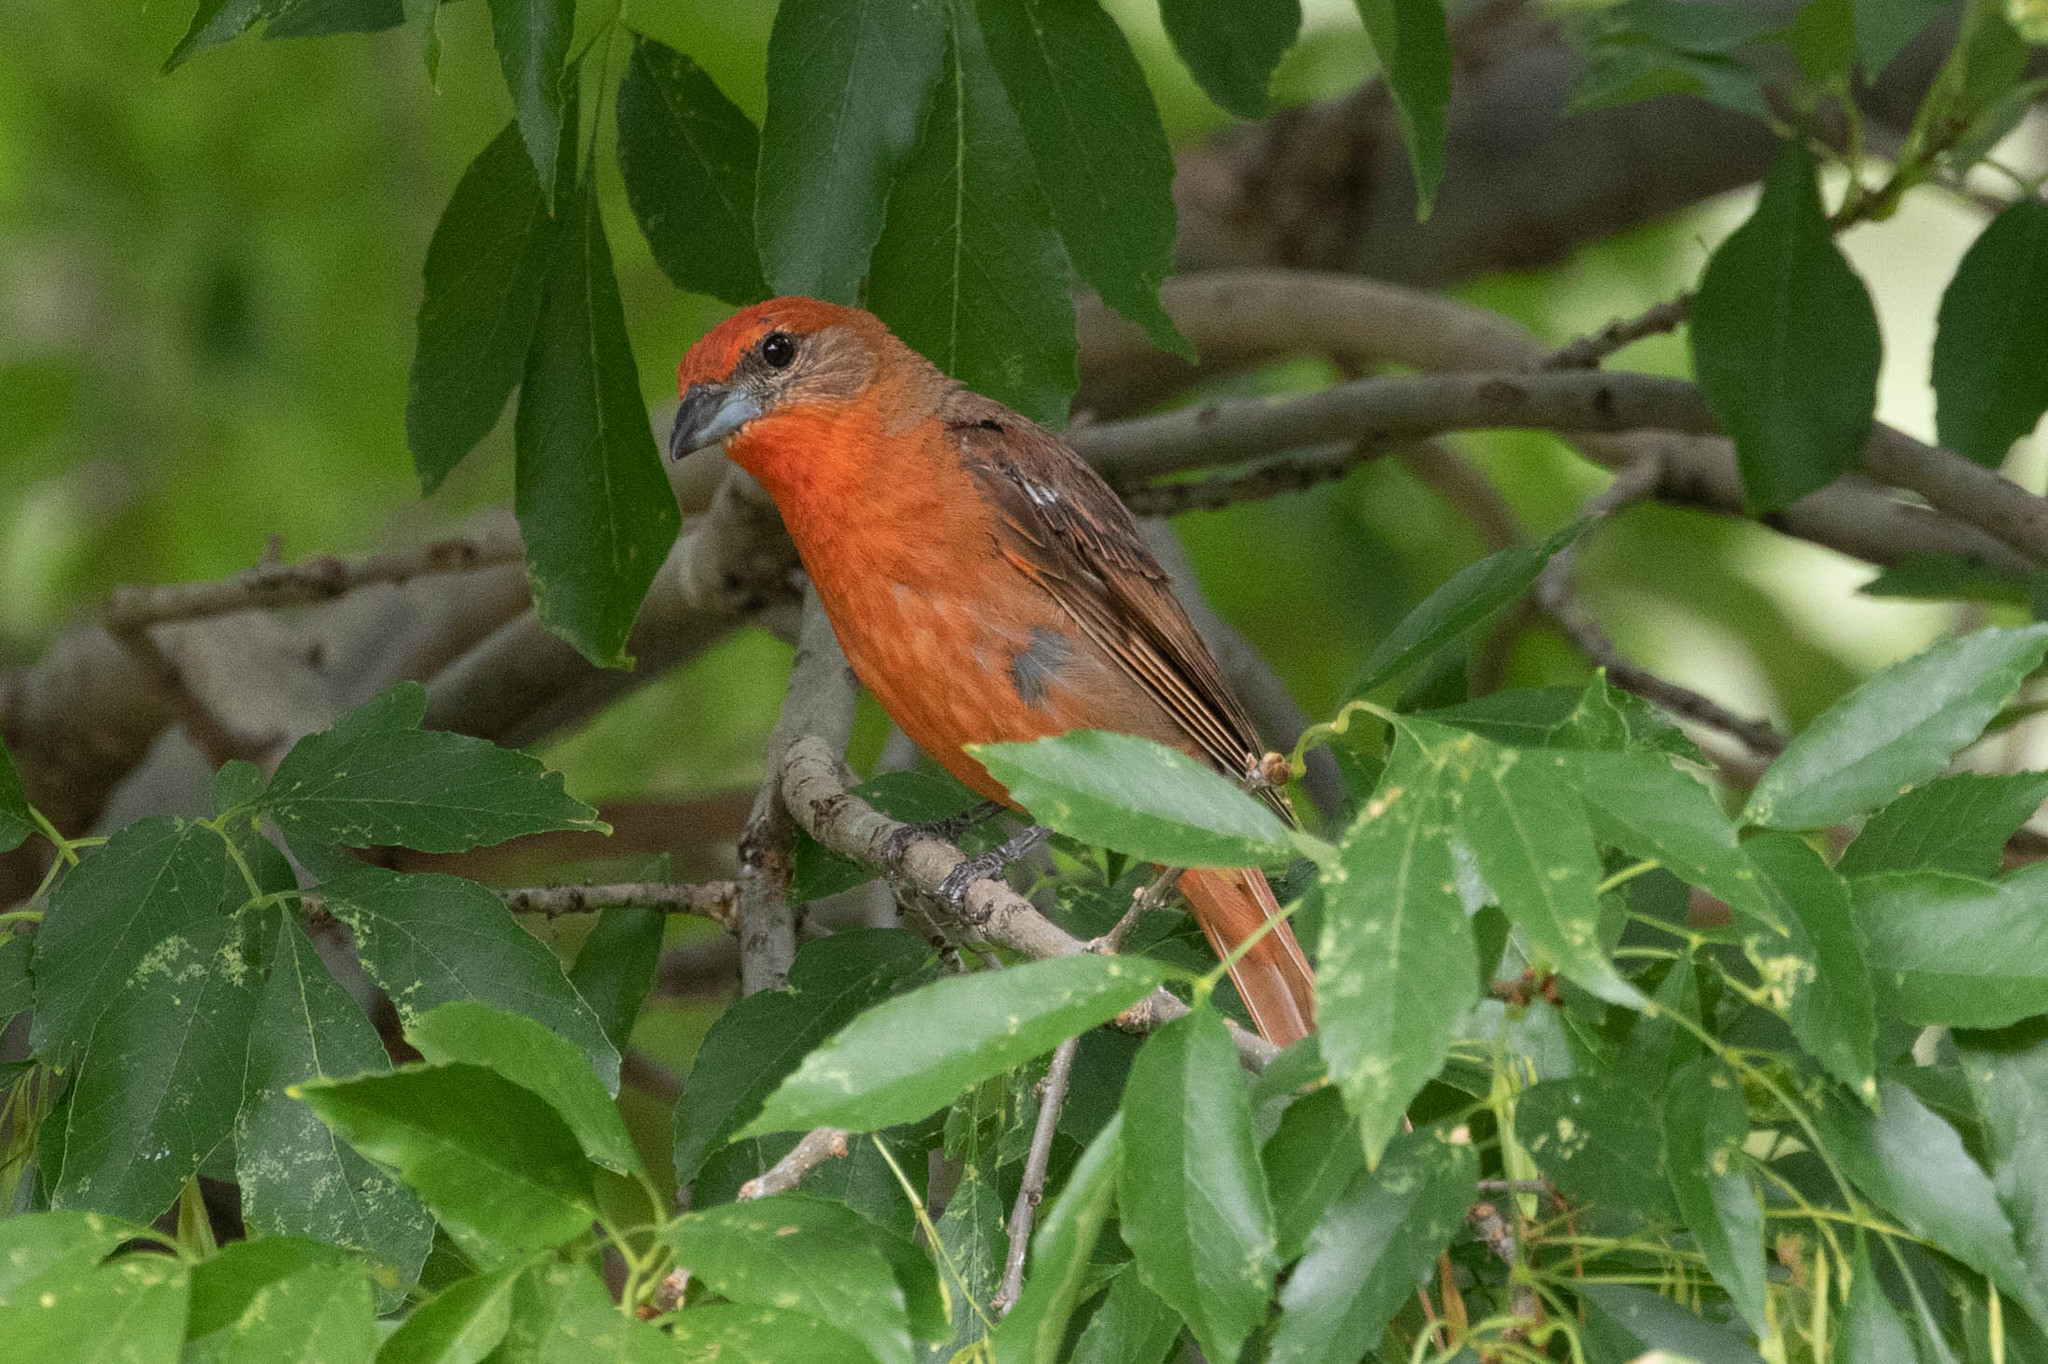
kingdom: Animalia
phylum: Chordata
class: Aves
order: Passeriformes
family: Cardinalidae
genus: Piranga
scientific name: Piranga flava
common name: Red tanager
